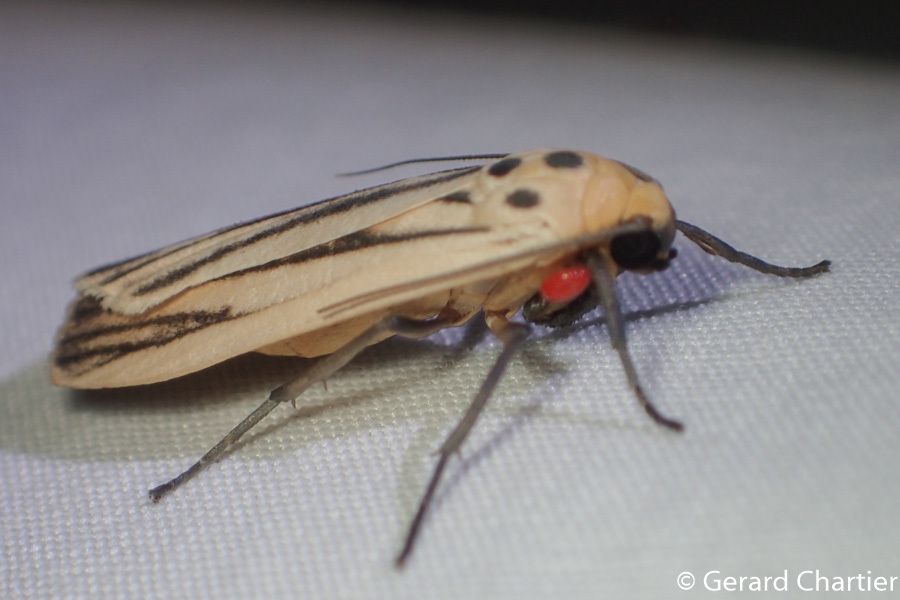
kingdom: Animalia
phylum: Arthropoda
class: Insecta
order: Lepidoptera
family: Erebidae
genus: Tigrioides
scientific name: Tigrioides leucanioides
